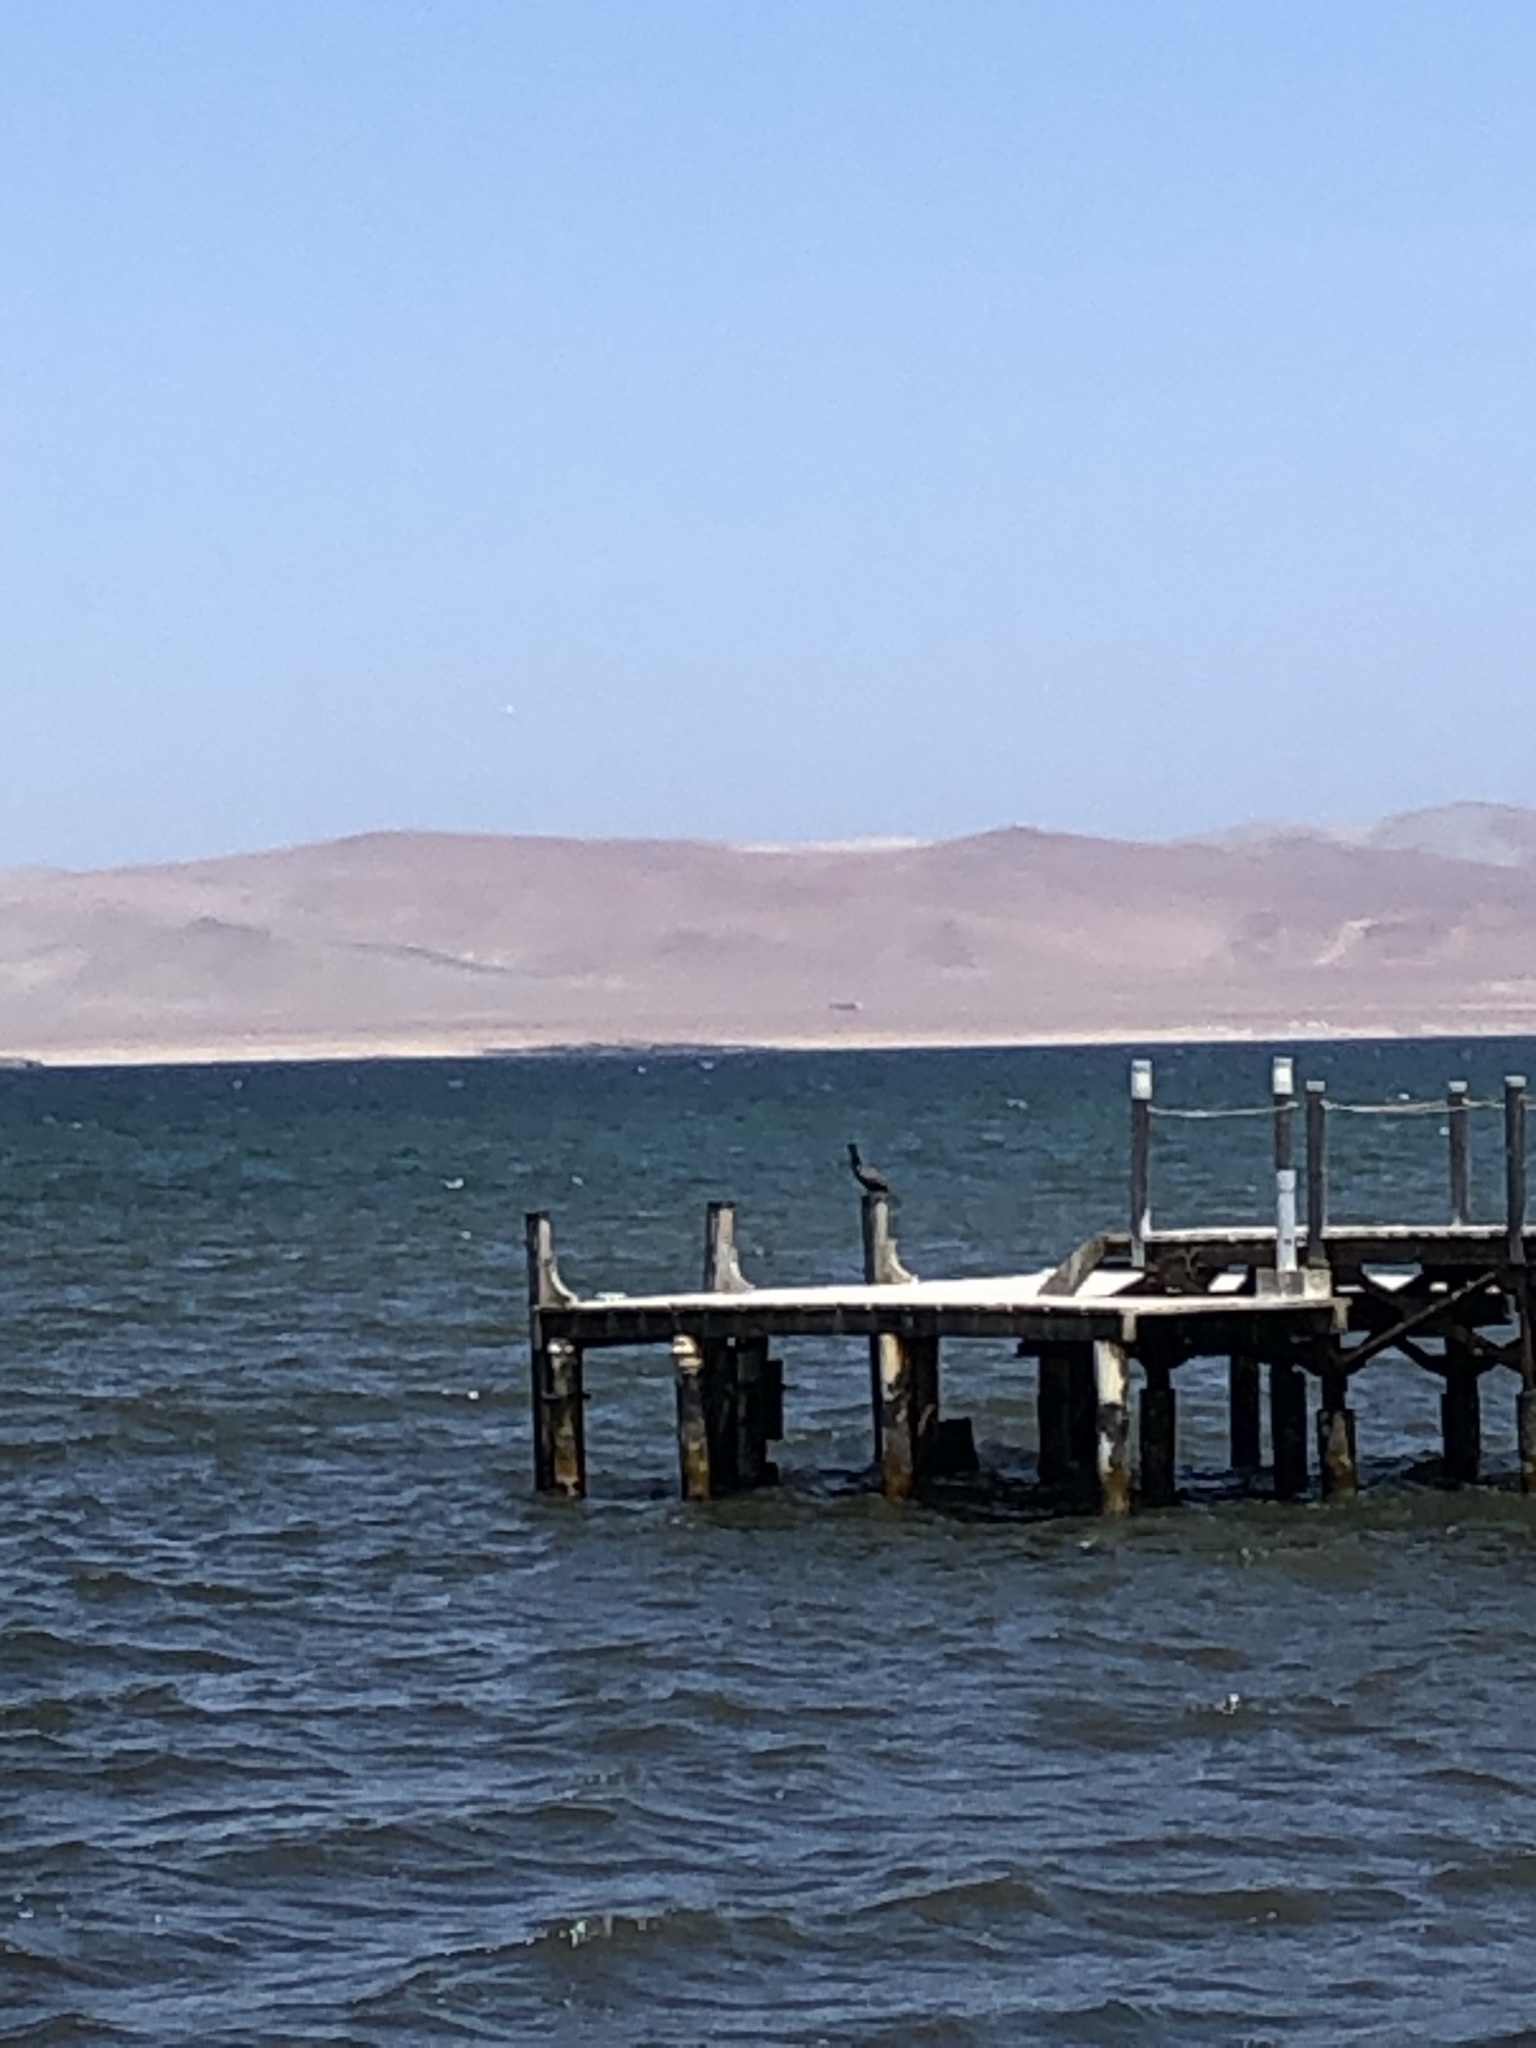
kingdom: Animalia
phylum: Chordata
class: Aves
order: Suliformes
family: Phalacrocoracidae
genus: Phalacrocorax
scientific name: Phalacrocorax brasilianus
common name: Neotropic cormorant
